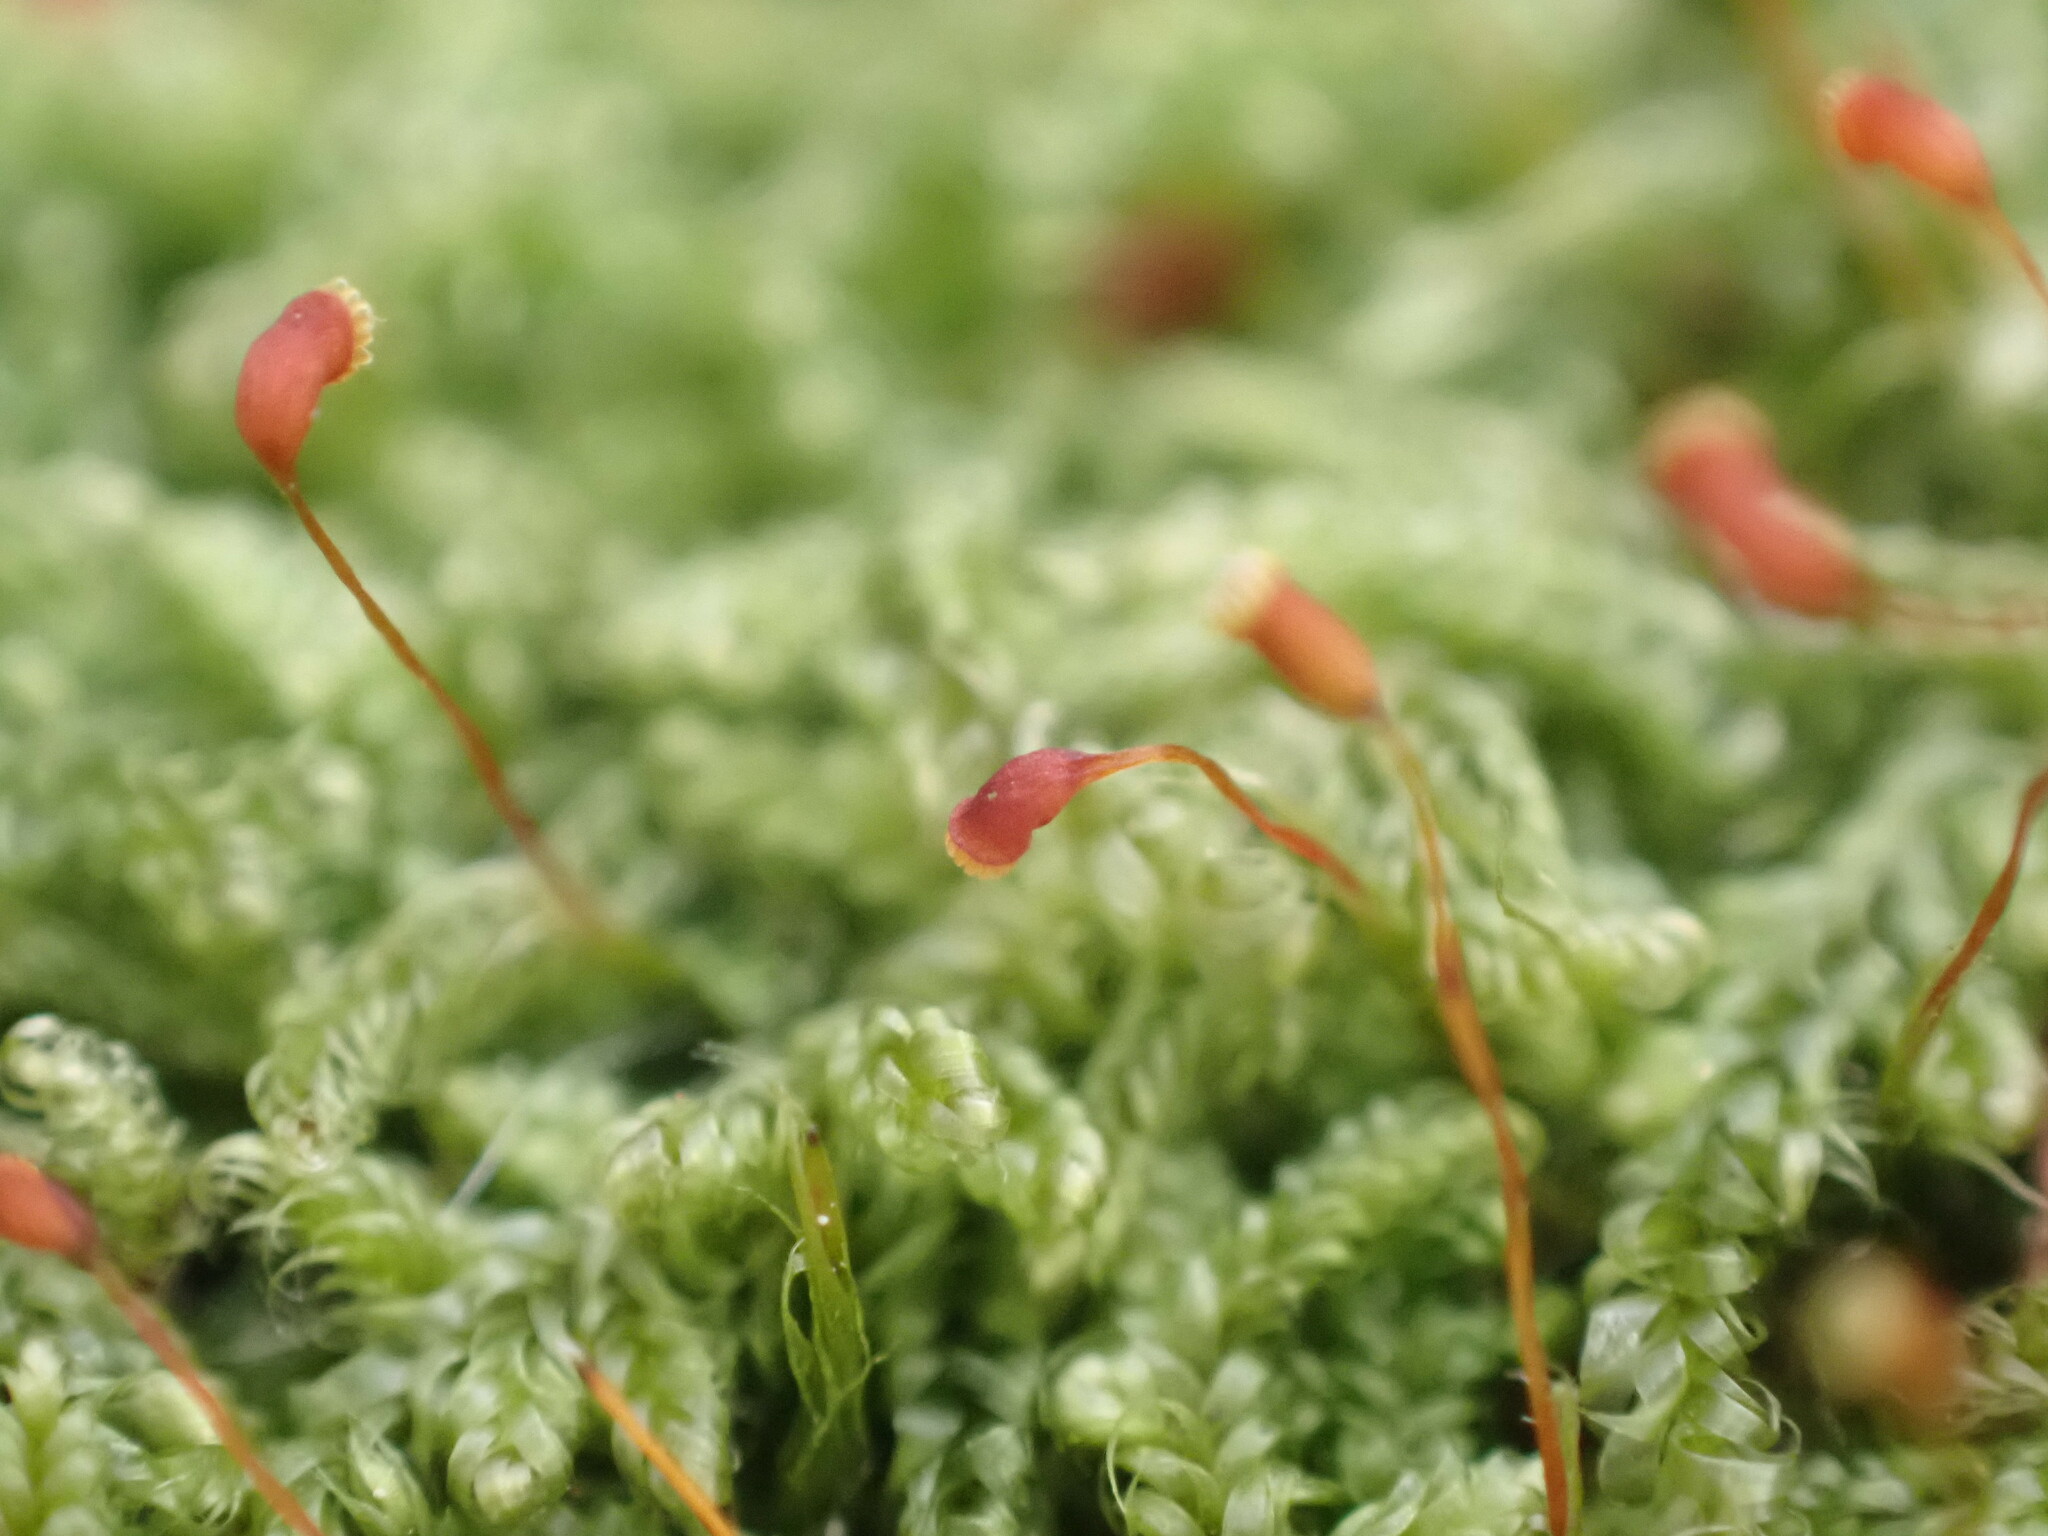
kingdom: Plantae
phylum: Bryophyta
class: Bryopsida
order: Hypnales
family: Pylaisiadelphaceae
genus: Trochophyllohypnum
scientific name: Trochophyllohypnum circinale
